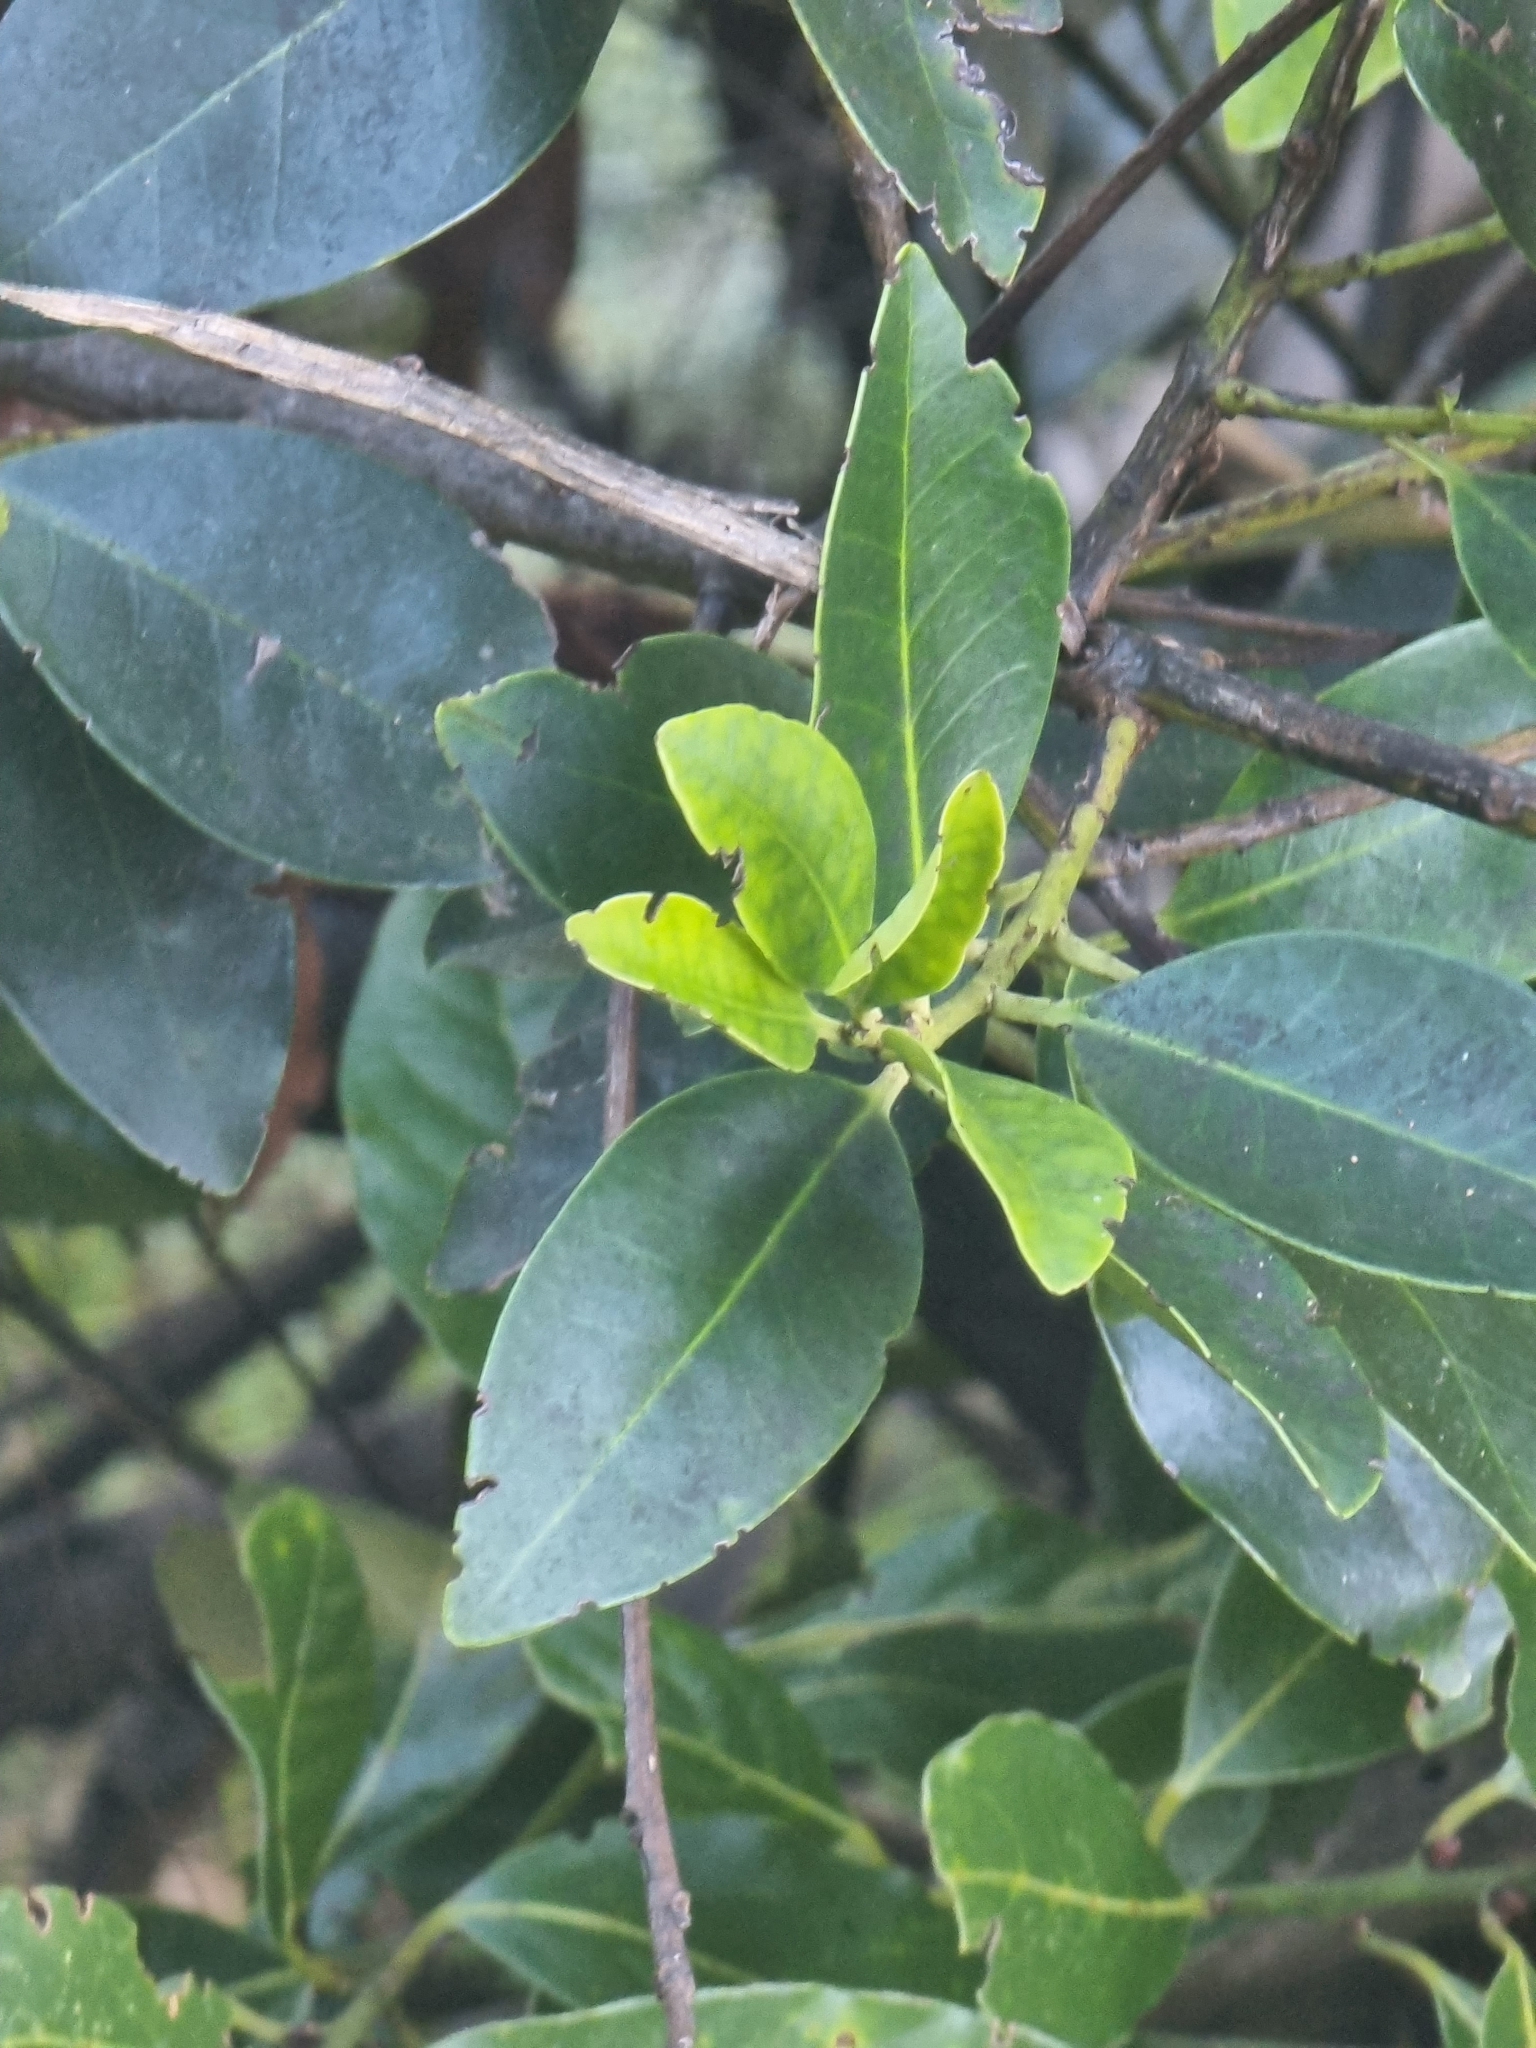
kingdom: Plantae
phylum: Tracheophyta
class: Magnoliopsida
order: Aquifoliales
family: Aquifoliaceae
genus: Ilex
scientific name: Ilex canariensis
